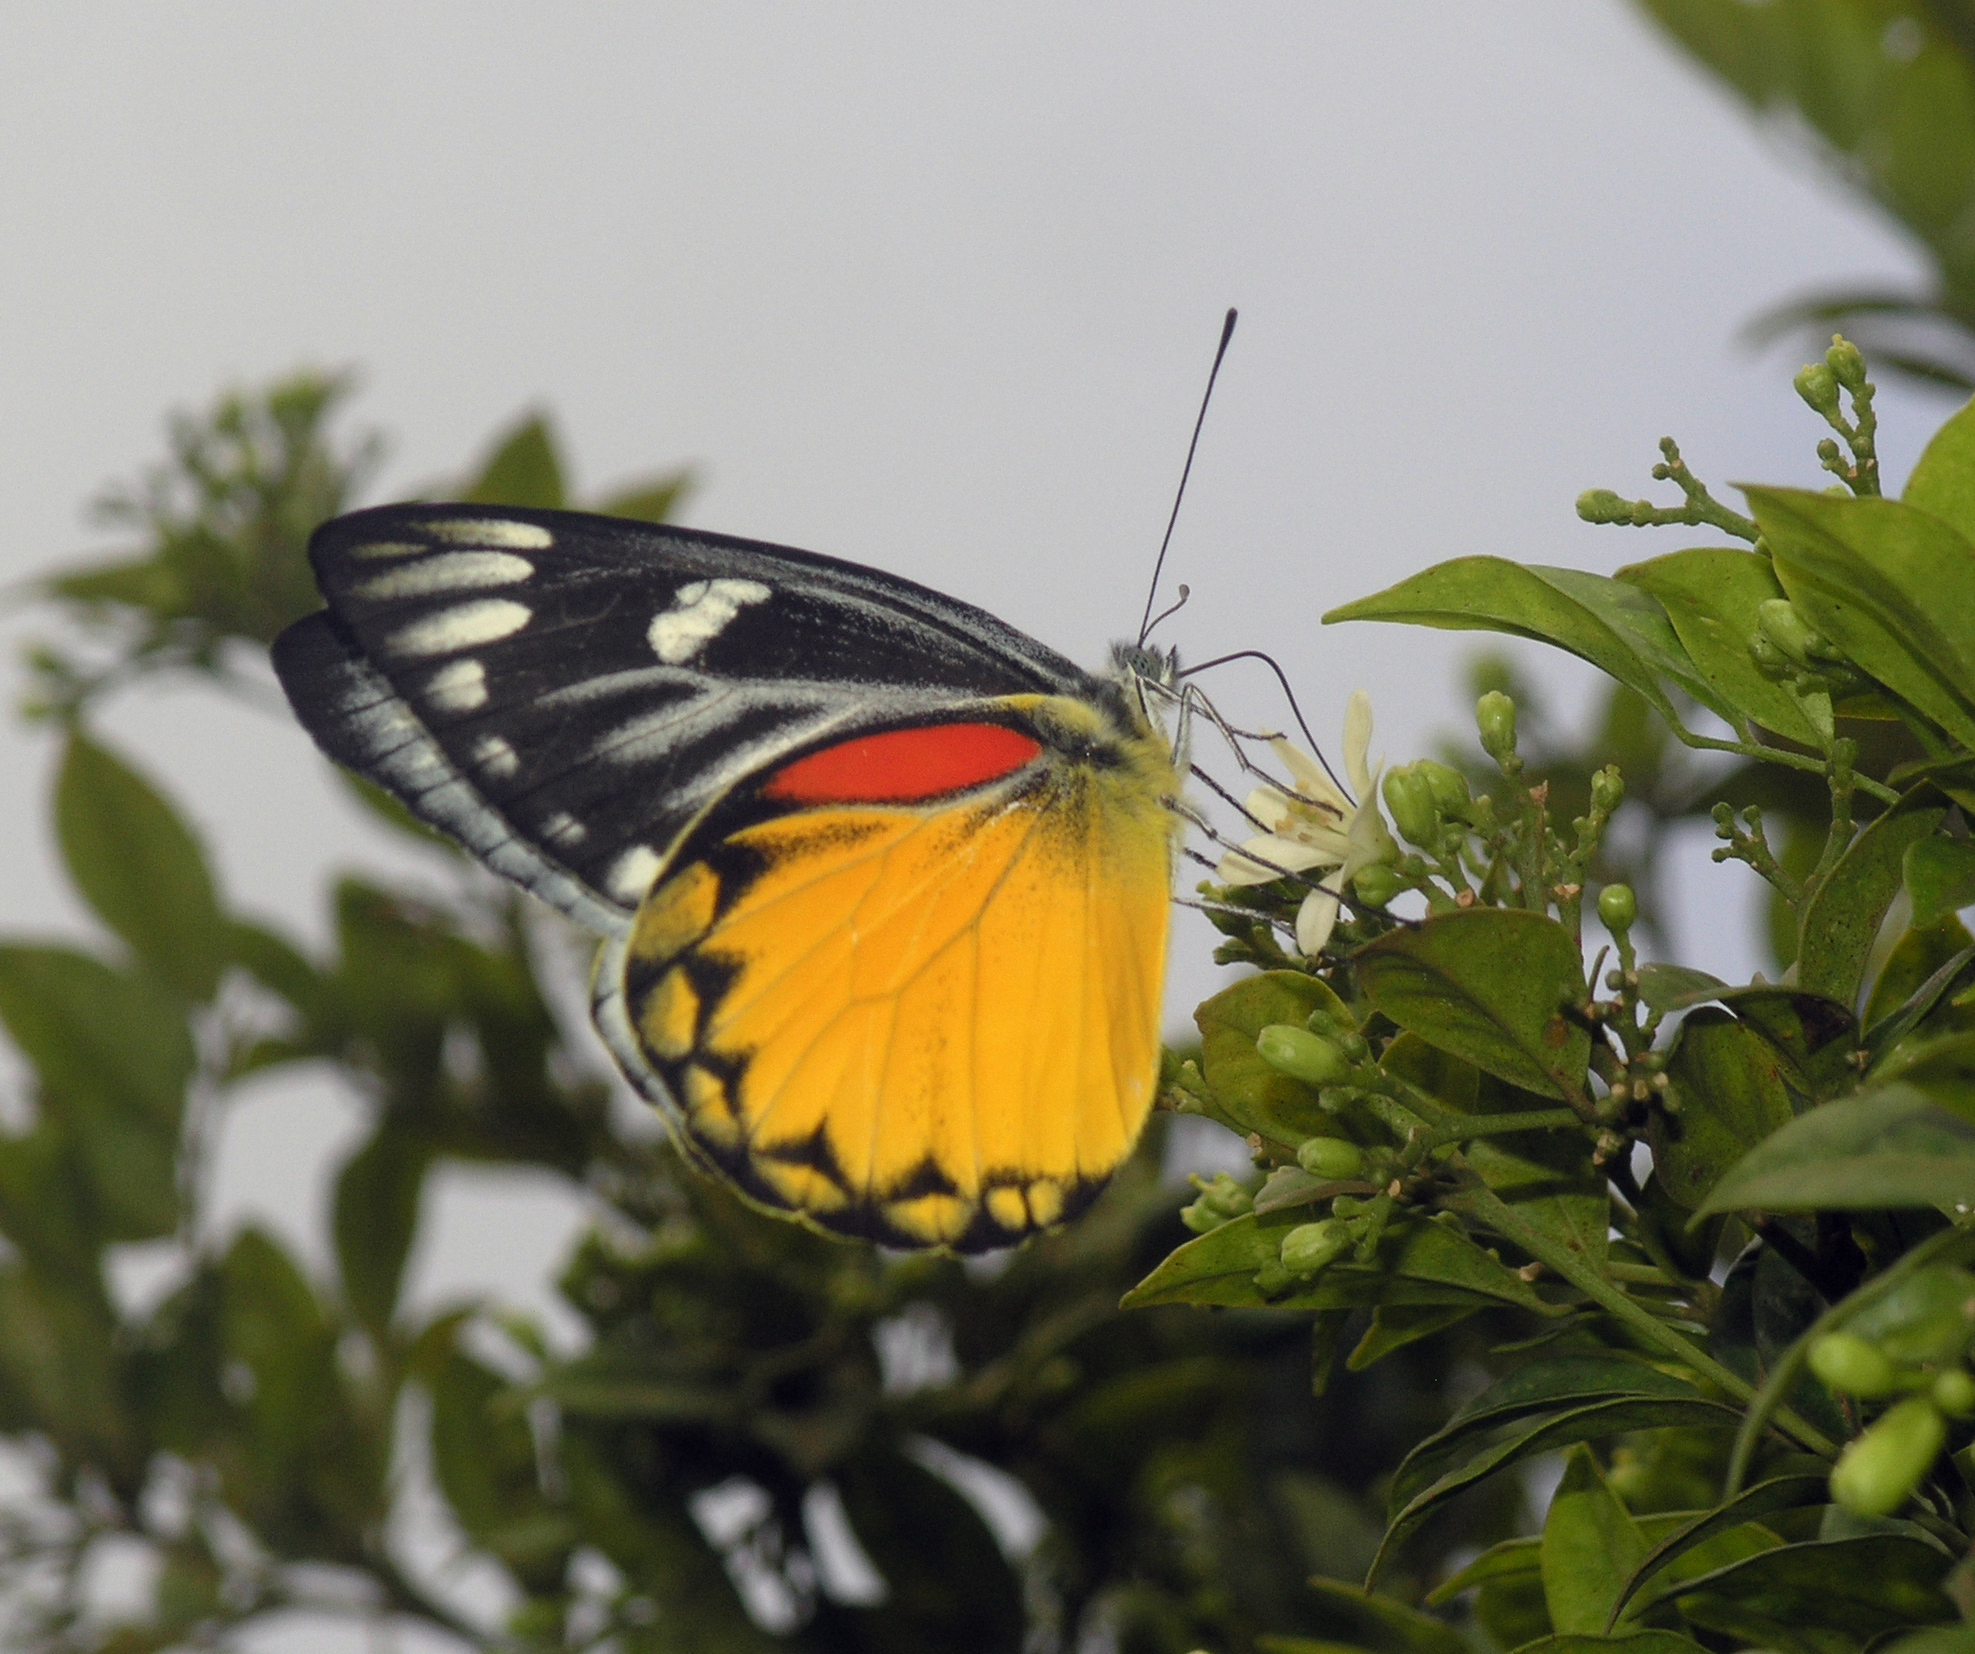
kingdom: Animalia
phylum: Arthropoda
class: Insecta
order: Lepidoptera
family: Pieridae
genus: Delias
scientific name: Delias descombesi
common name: Red-spot jezebel
